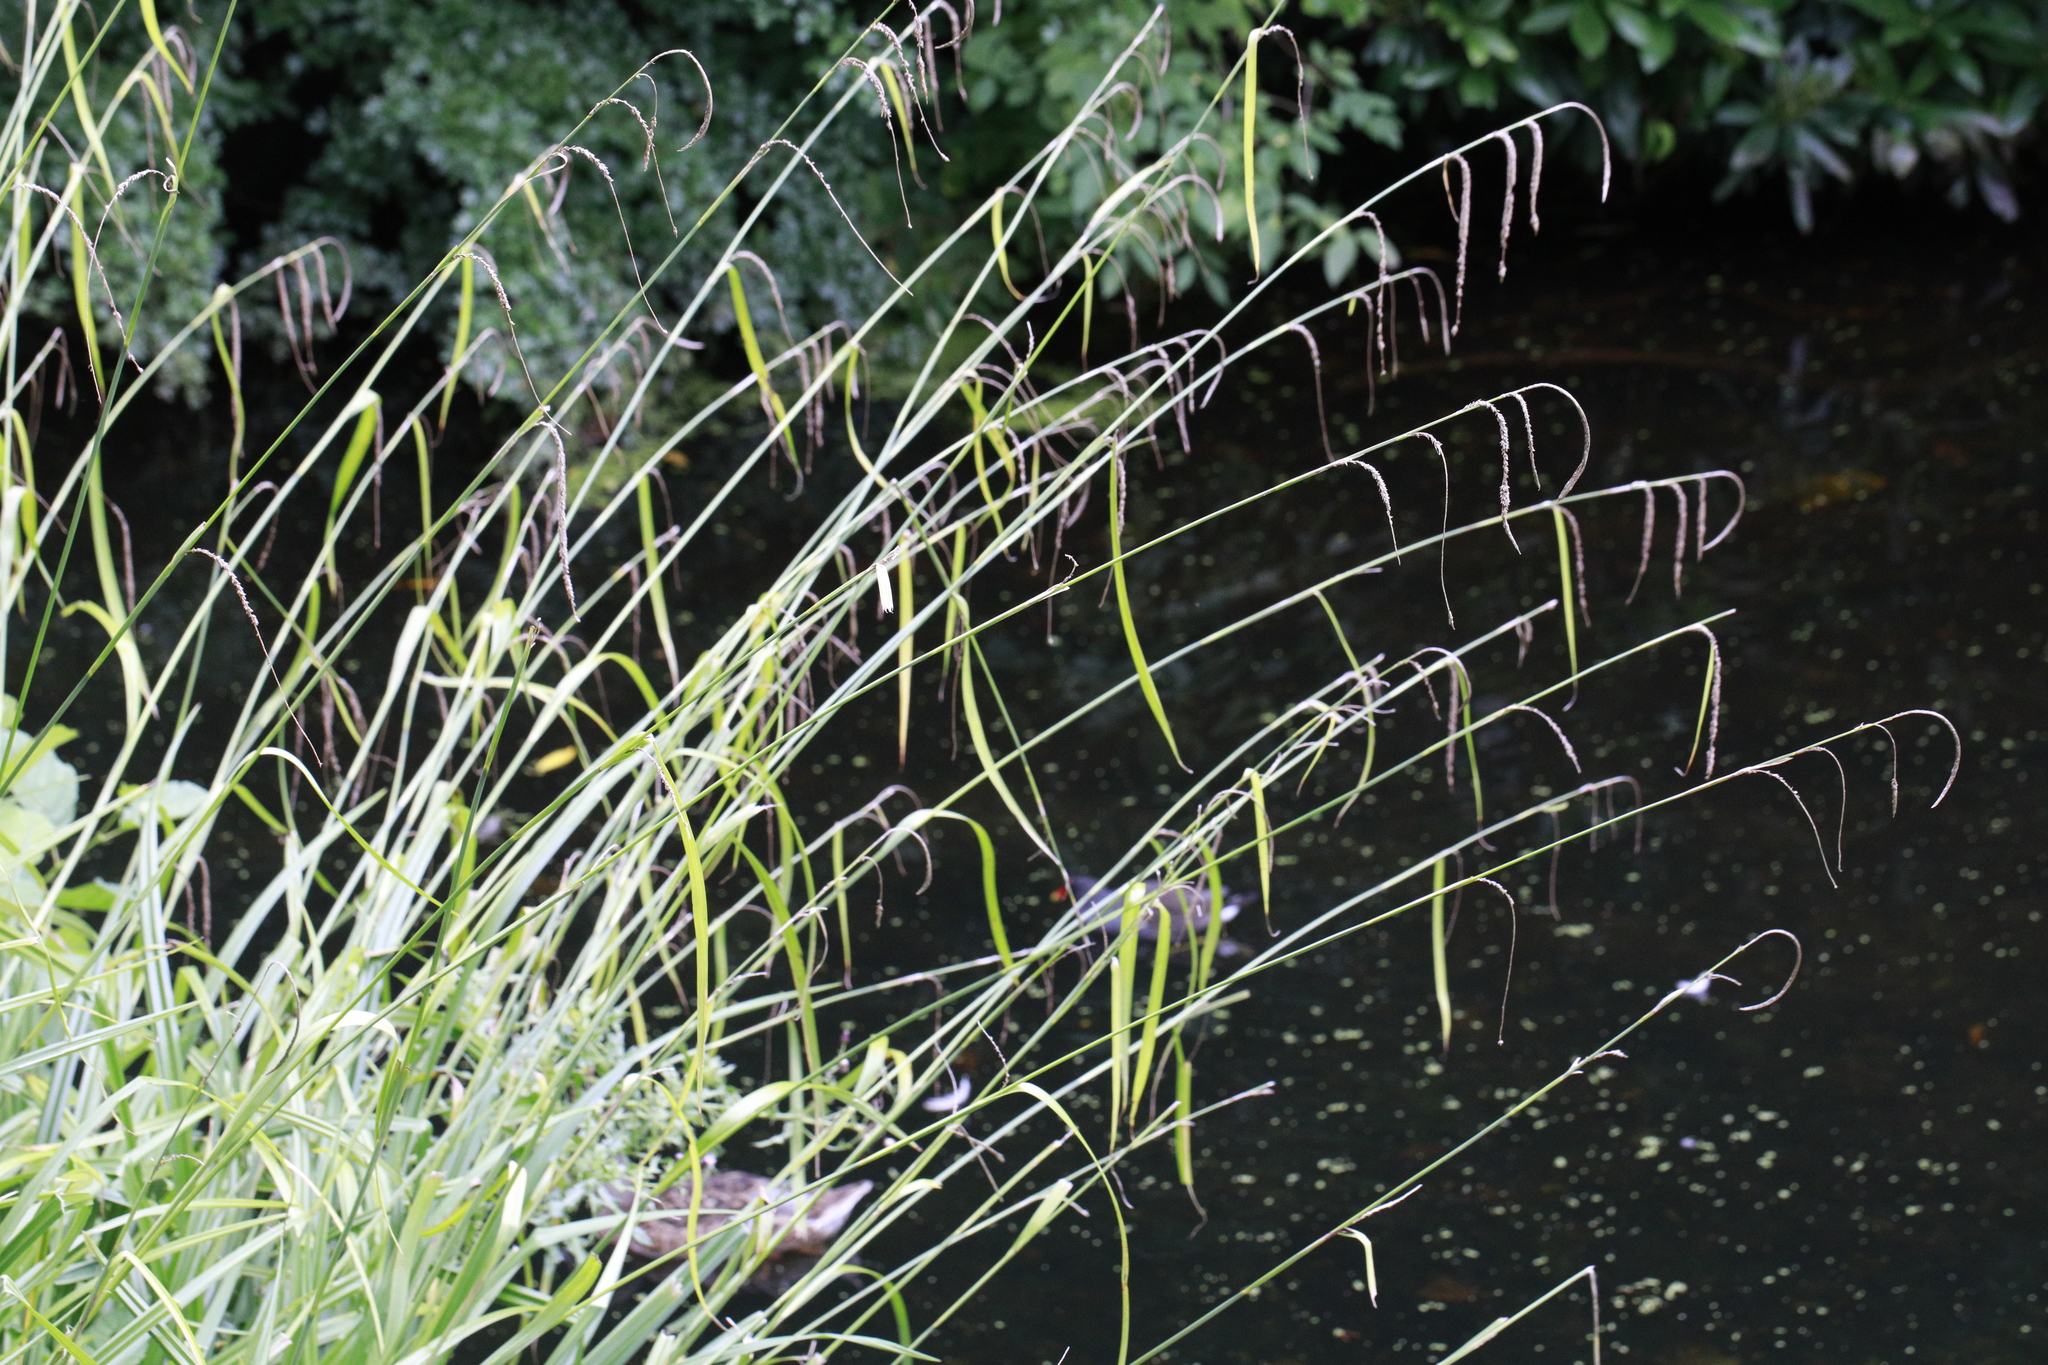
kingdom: Plantae
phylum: Tracheophyta
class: Liliopsida
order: Poales
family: Cyperaceae
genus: Carex
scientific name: Carex pendula
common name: Pendulous sedge
